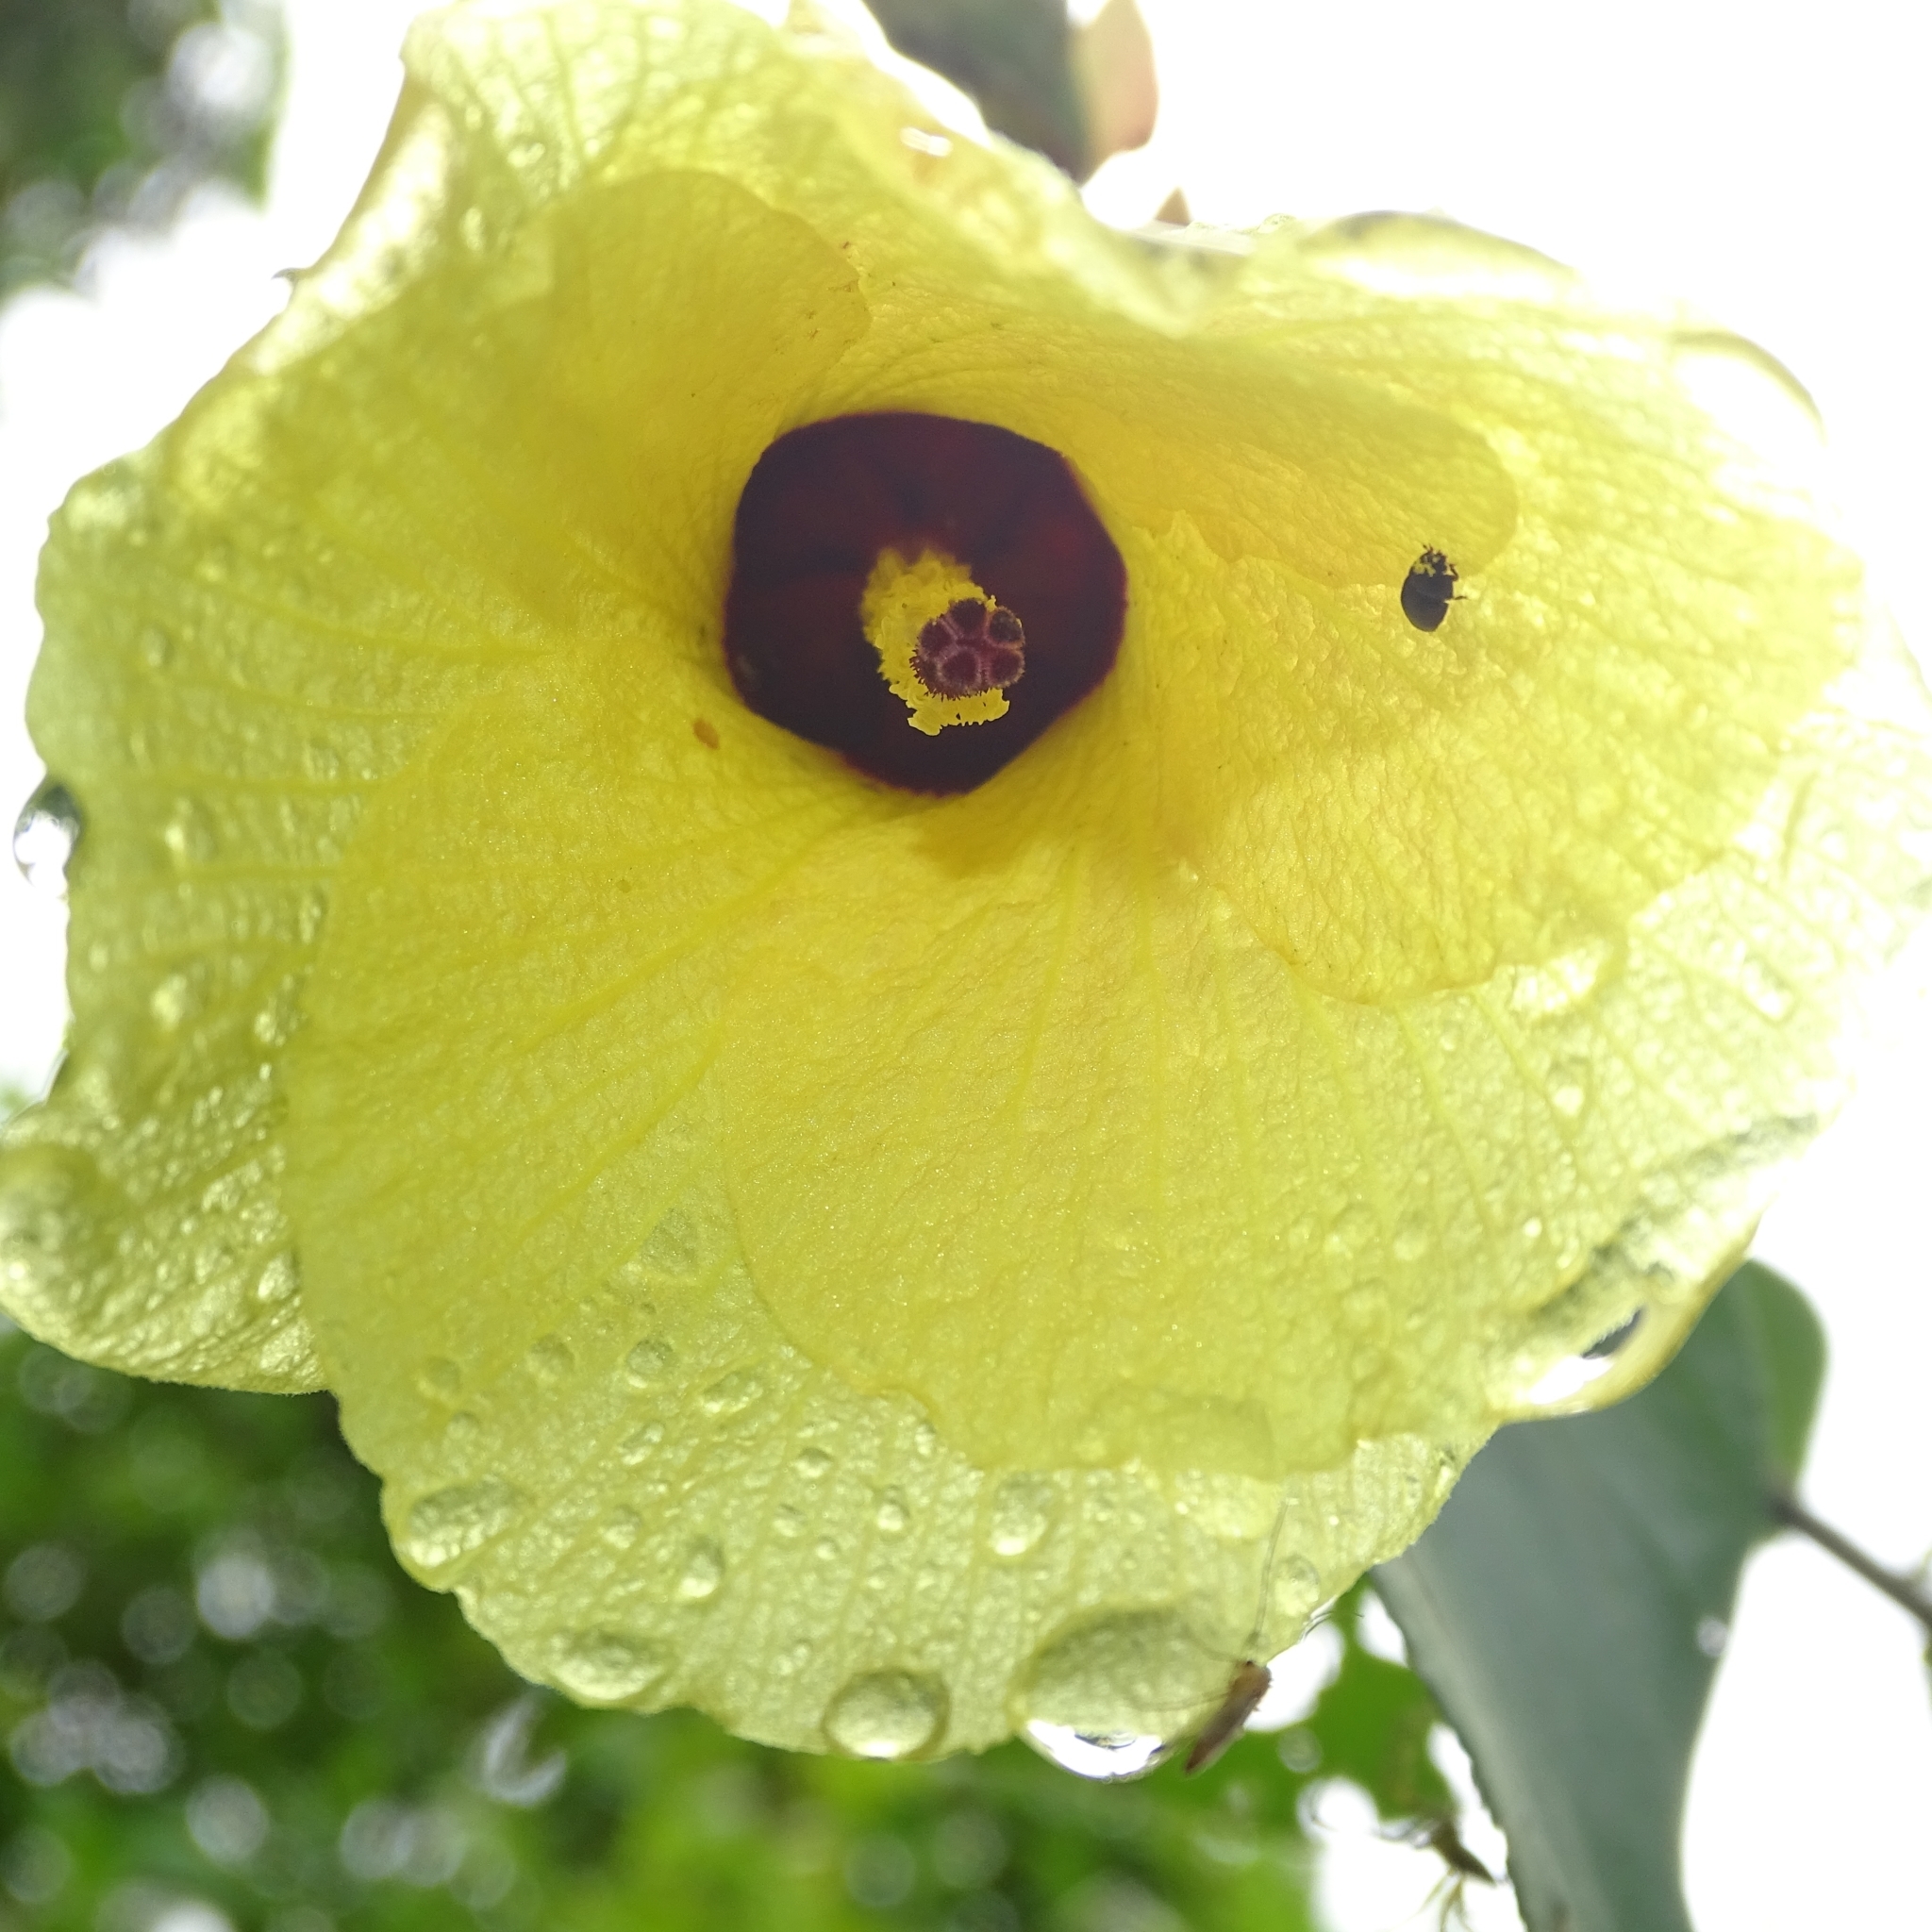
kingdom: Plantae
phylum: Tracheophyta
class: Magnoliopsida
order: Malvales
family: Malvaceae
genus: Talipariti
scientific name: Talipariti tiliaceum
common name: Sea hibiscus
